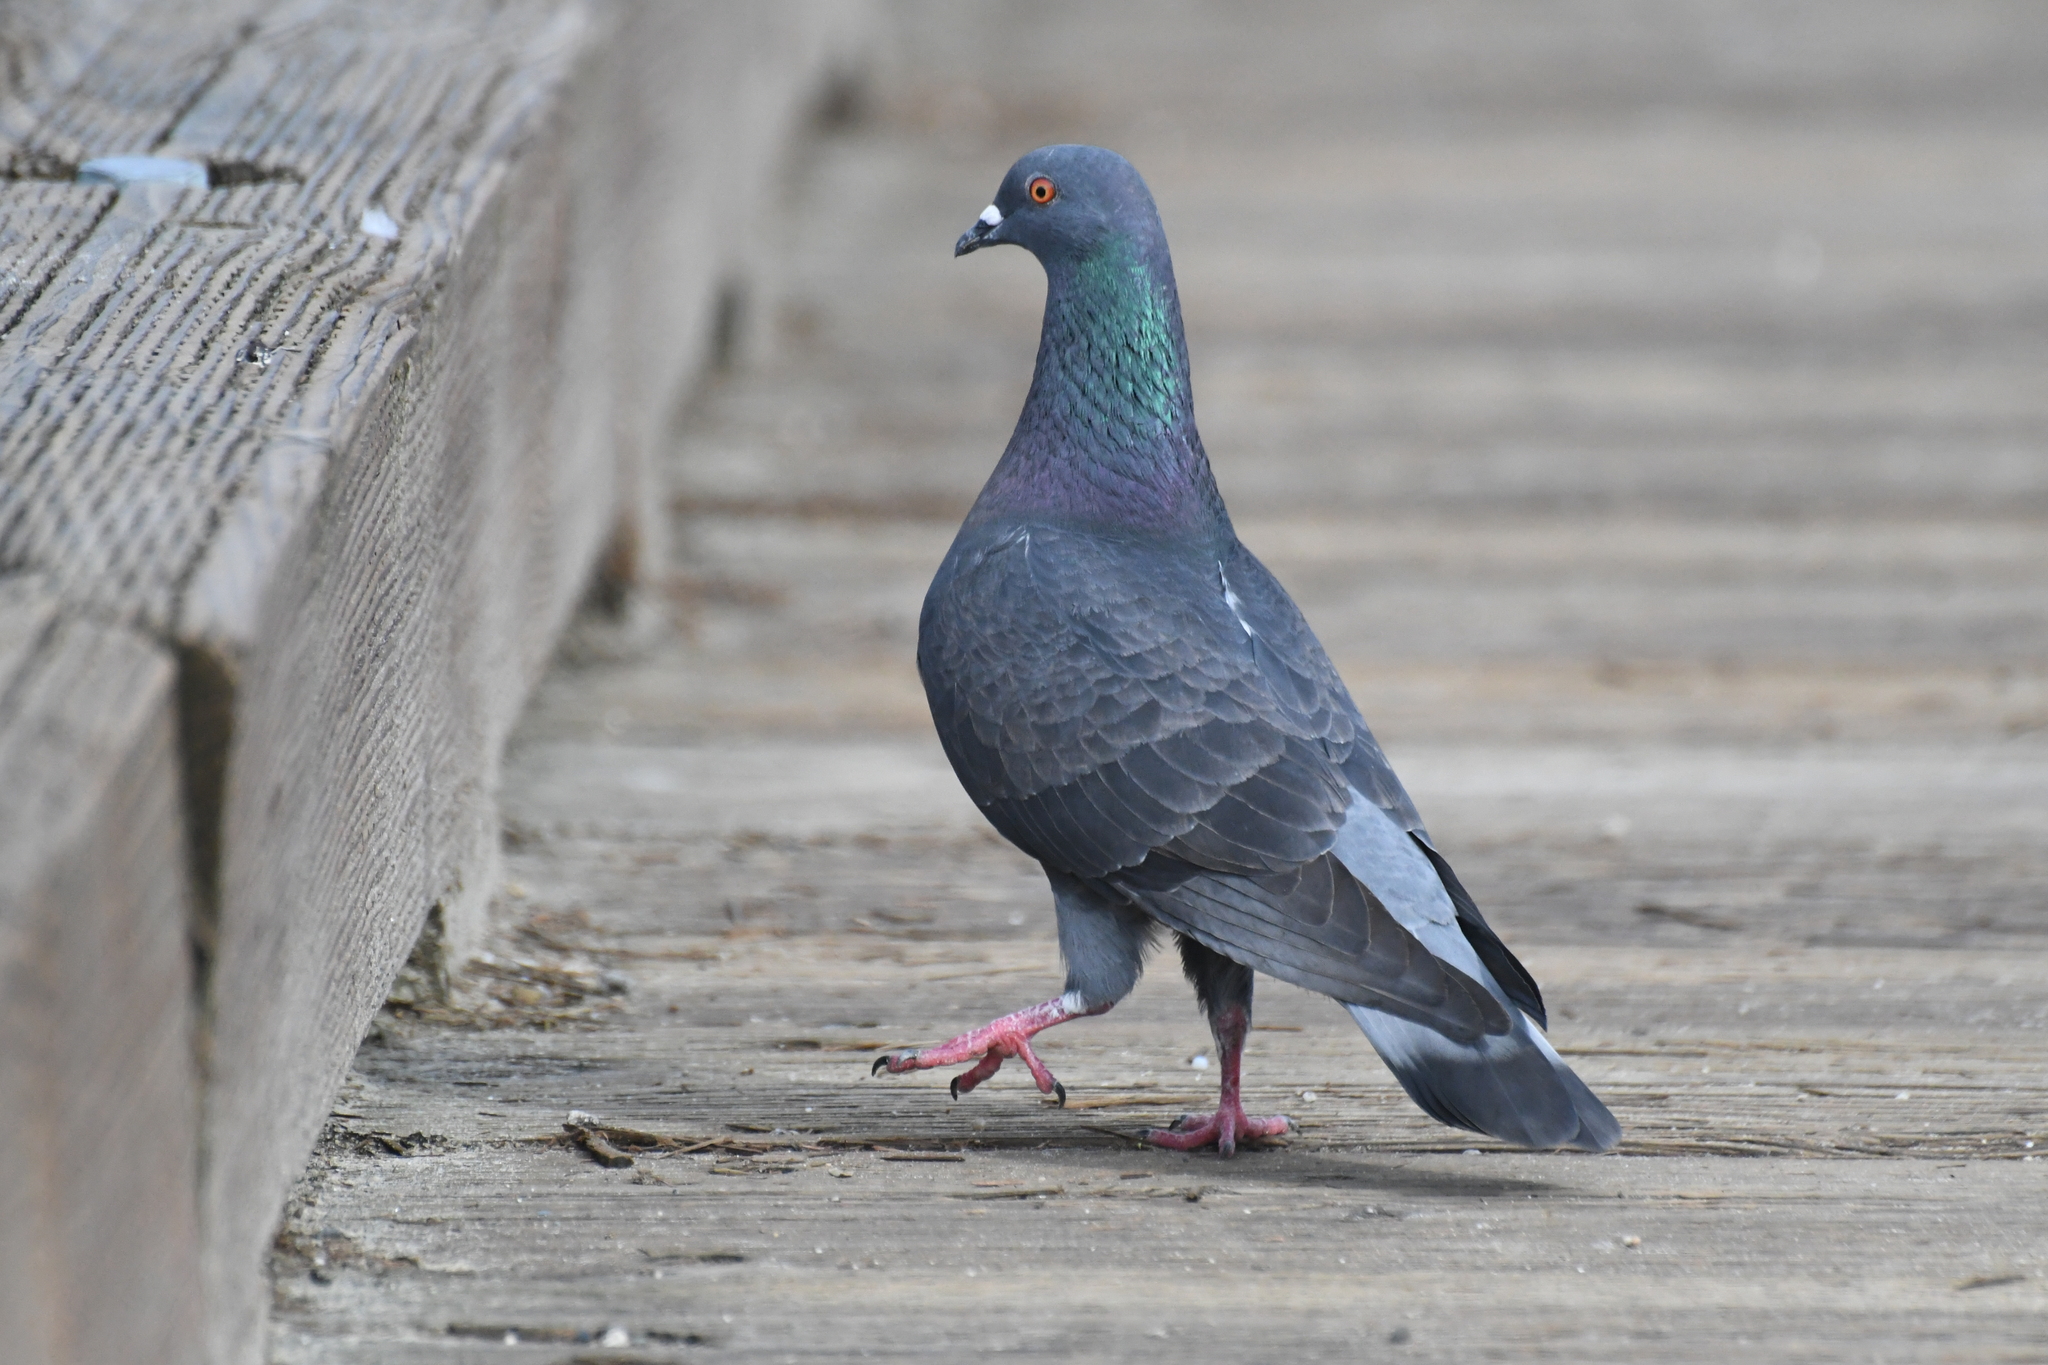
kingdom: Animalia
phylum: Chordata
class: Aves
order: Columbiformes
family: Columbidae
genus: Columba
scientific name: Columba livia
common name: Rock pigeon
